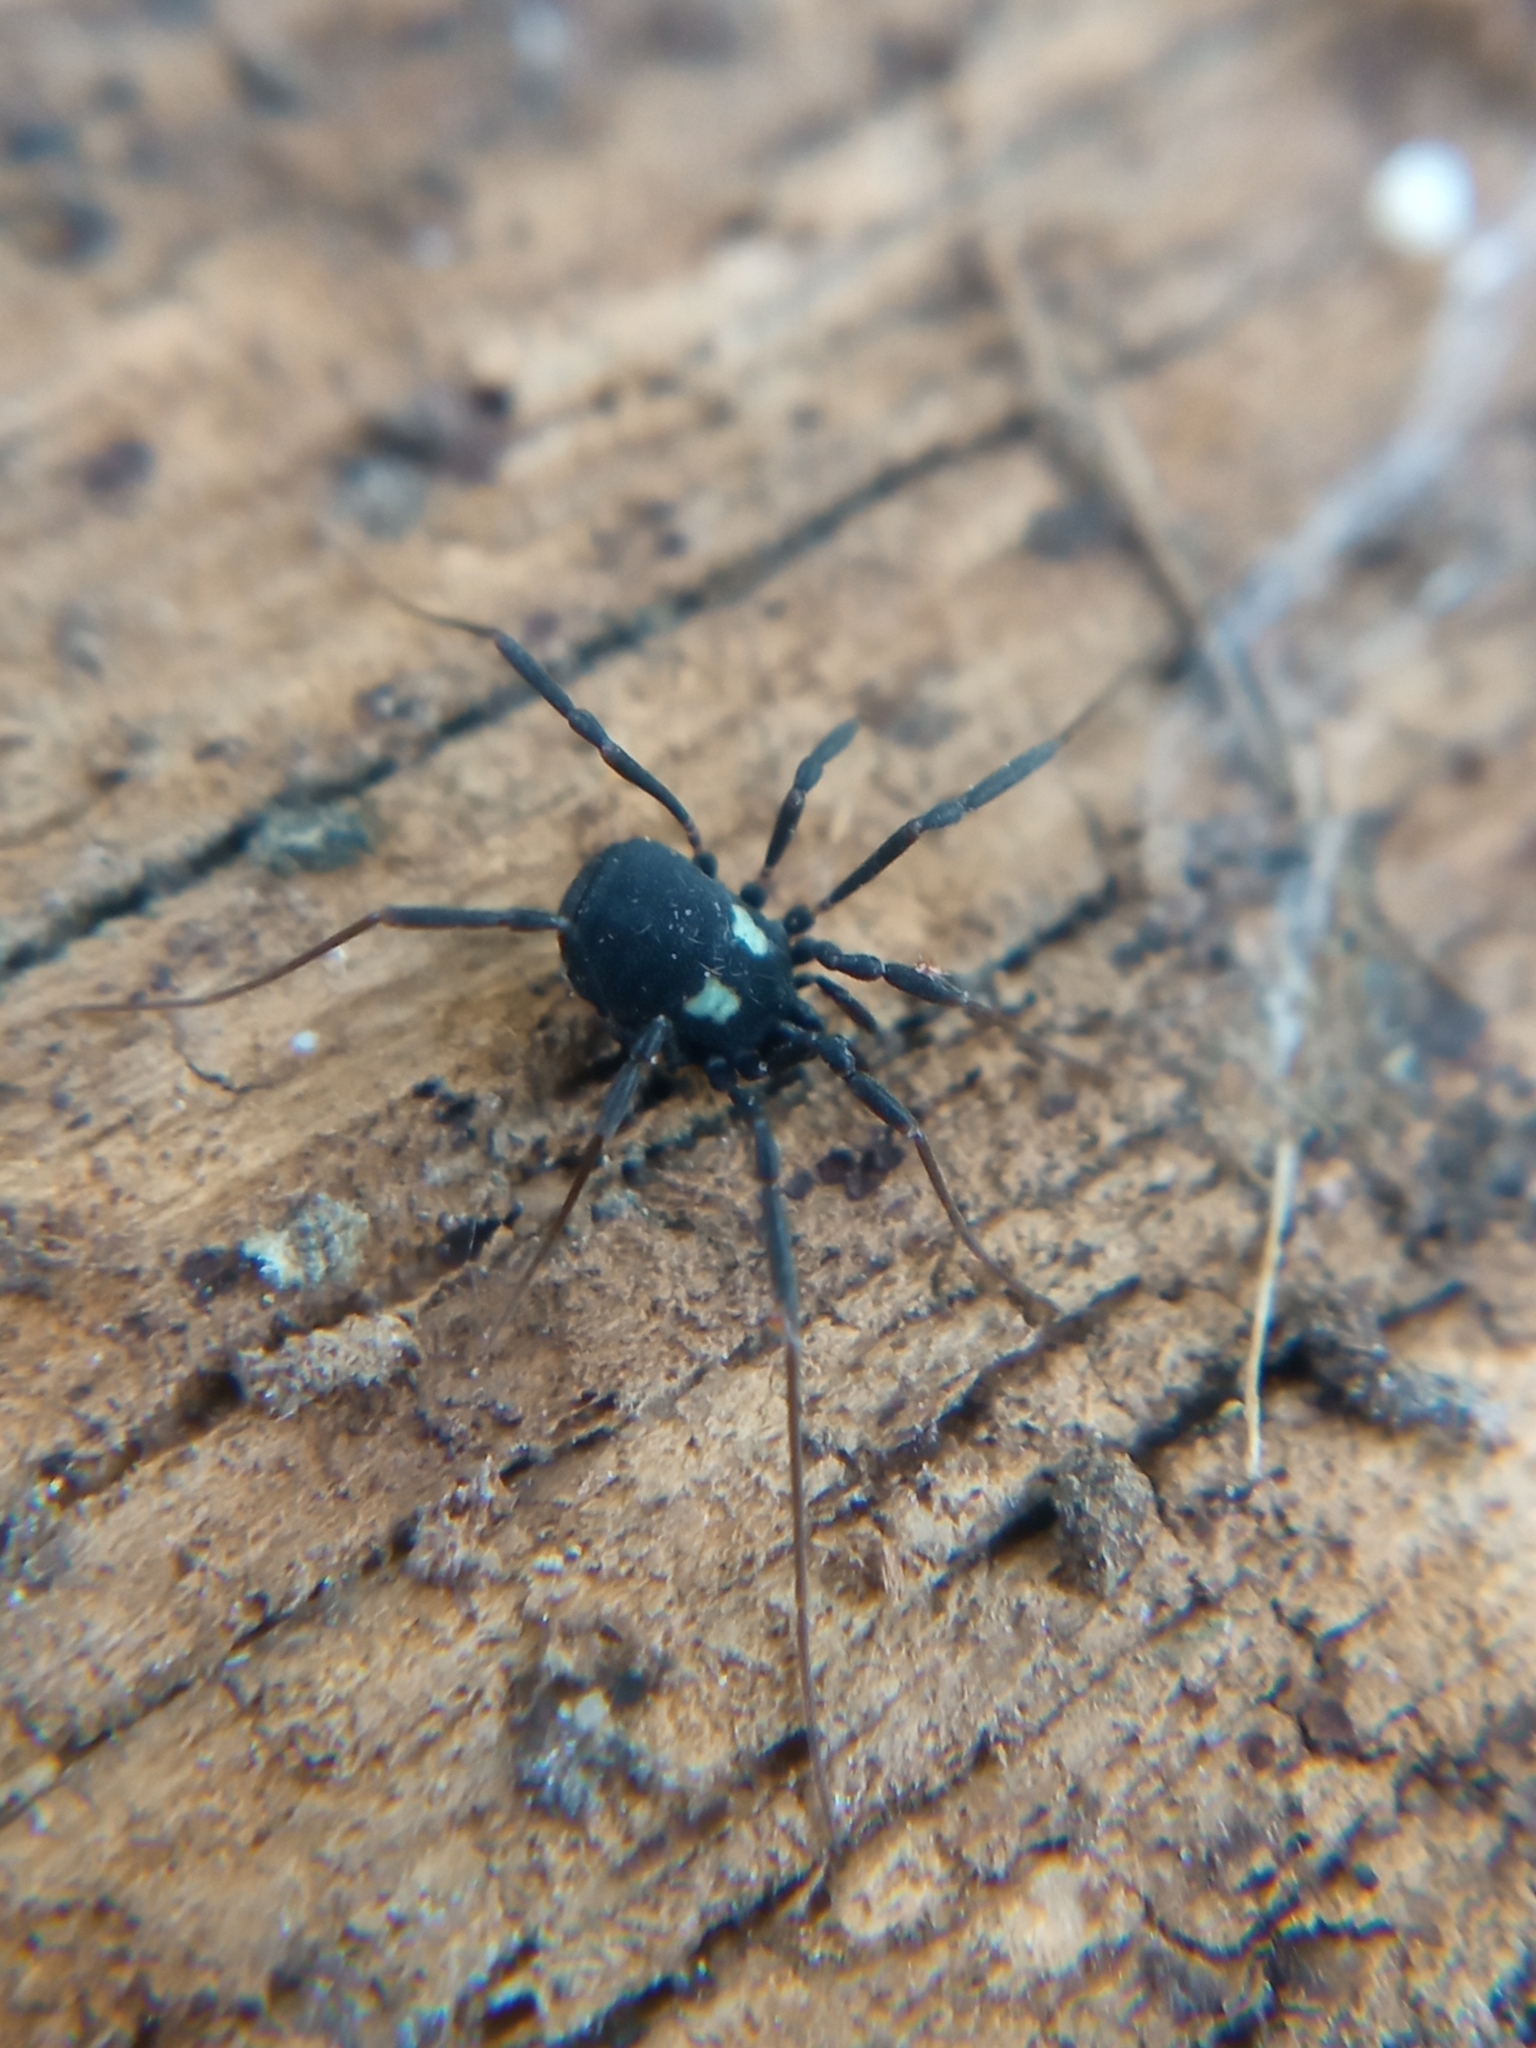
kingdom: Animalia
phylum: Arthropoda
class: Arachnida
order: Opiliones
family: Nemastomatidae
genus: Nemastoma
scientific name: Nemastoma lugubre
